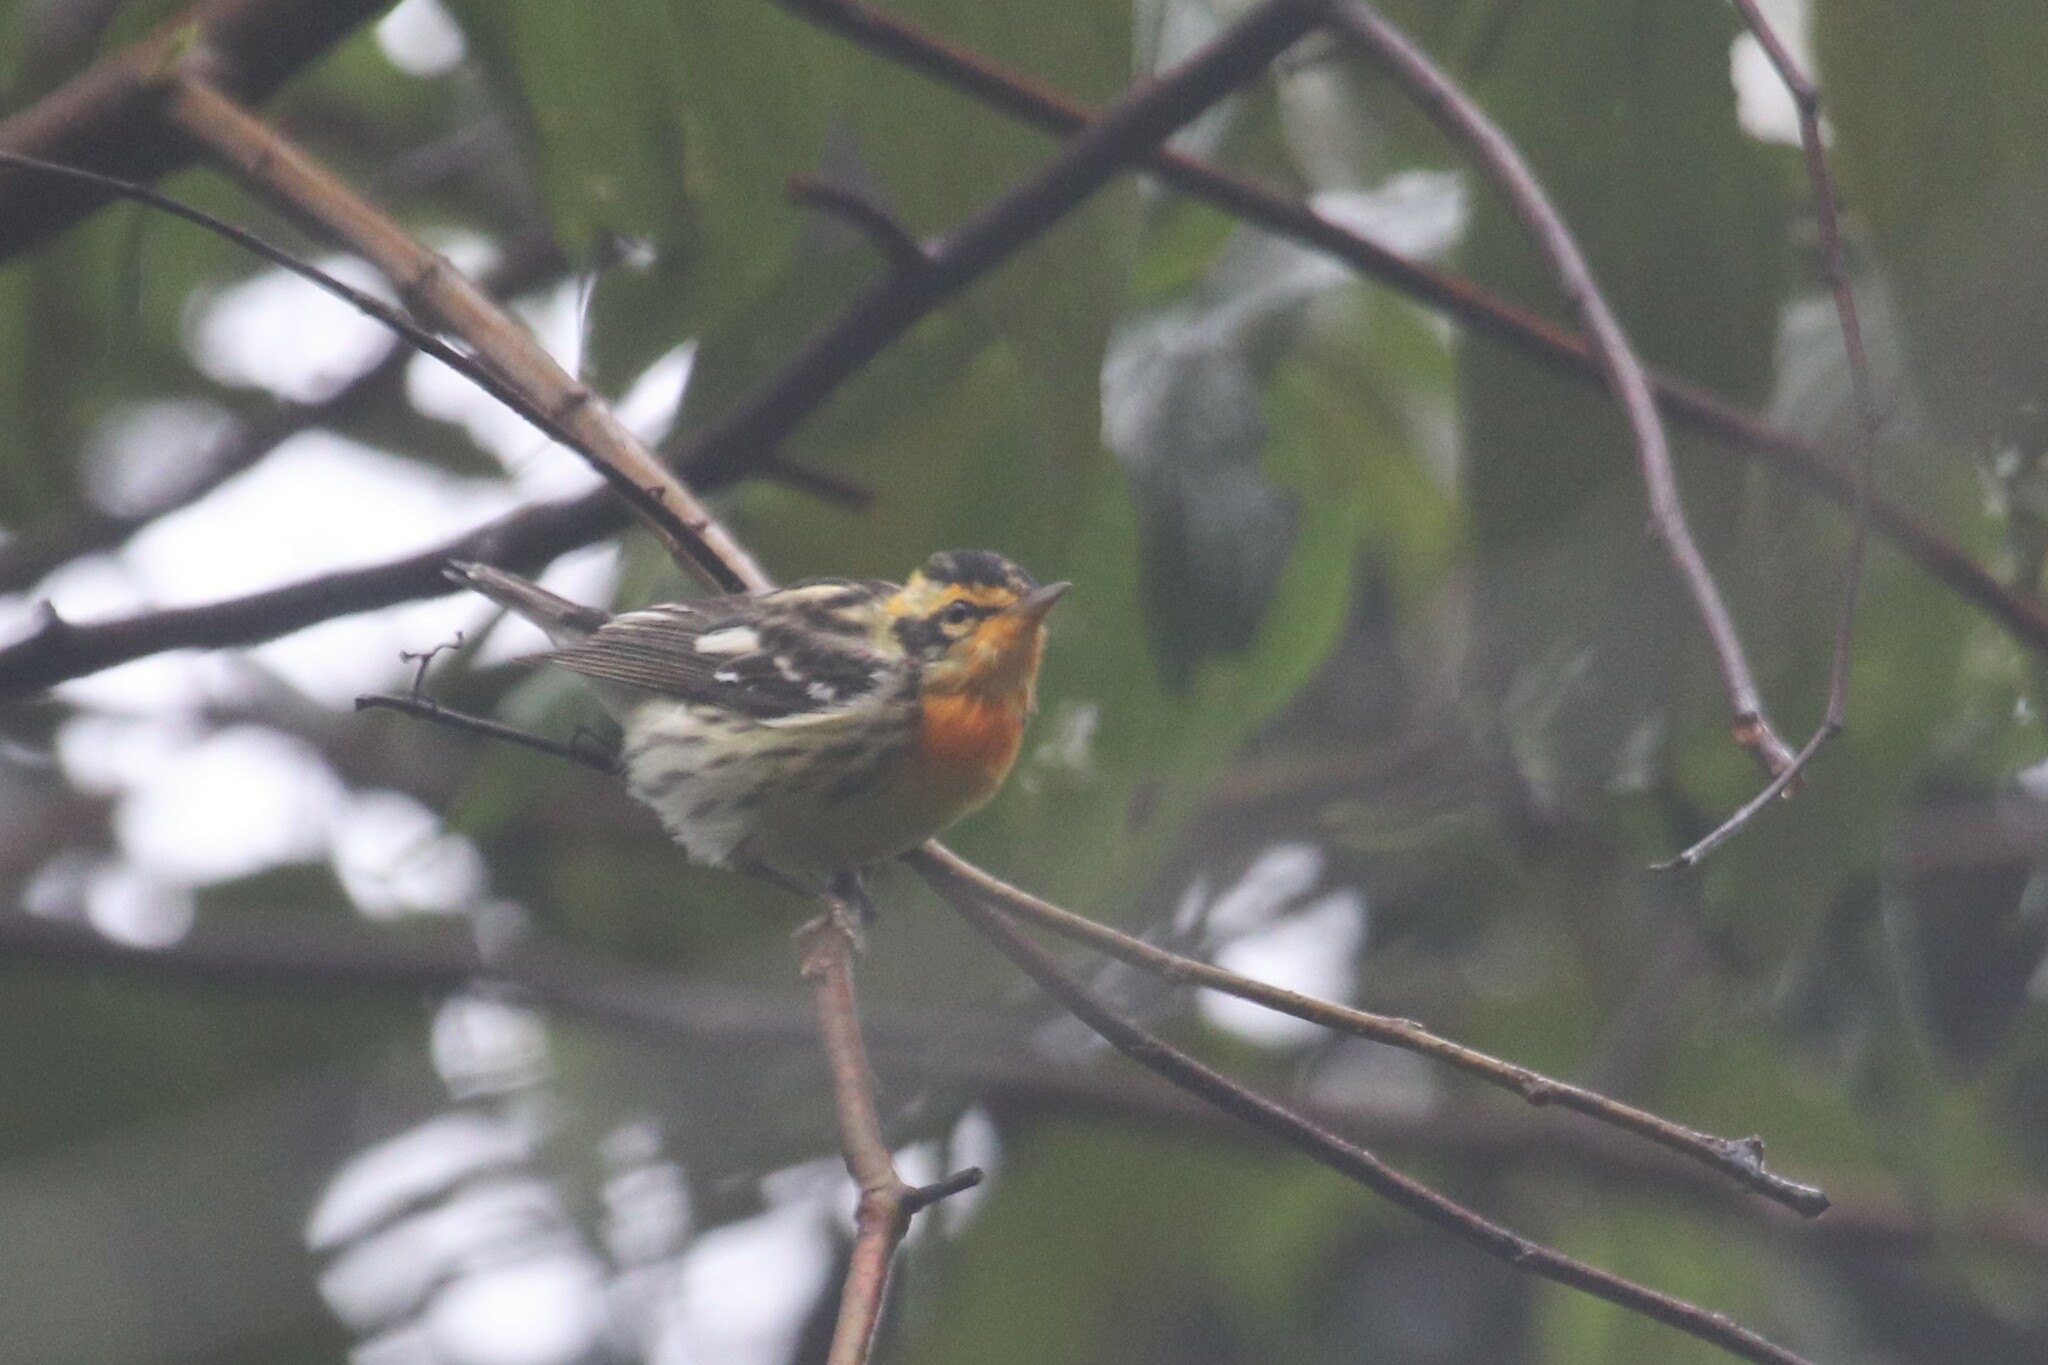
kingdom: Animalia
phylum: Chordata
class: Aves
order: Passeriformes
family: Parulidae
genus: Setophaga
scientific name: Setophaga fusca
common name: Blackburnian warbler
